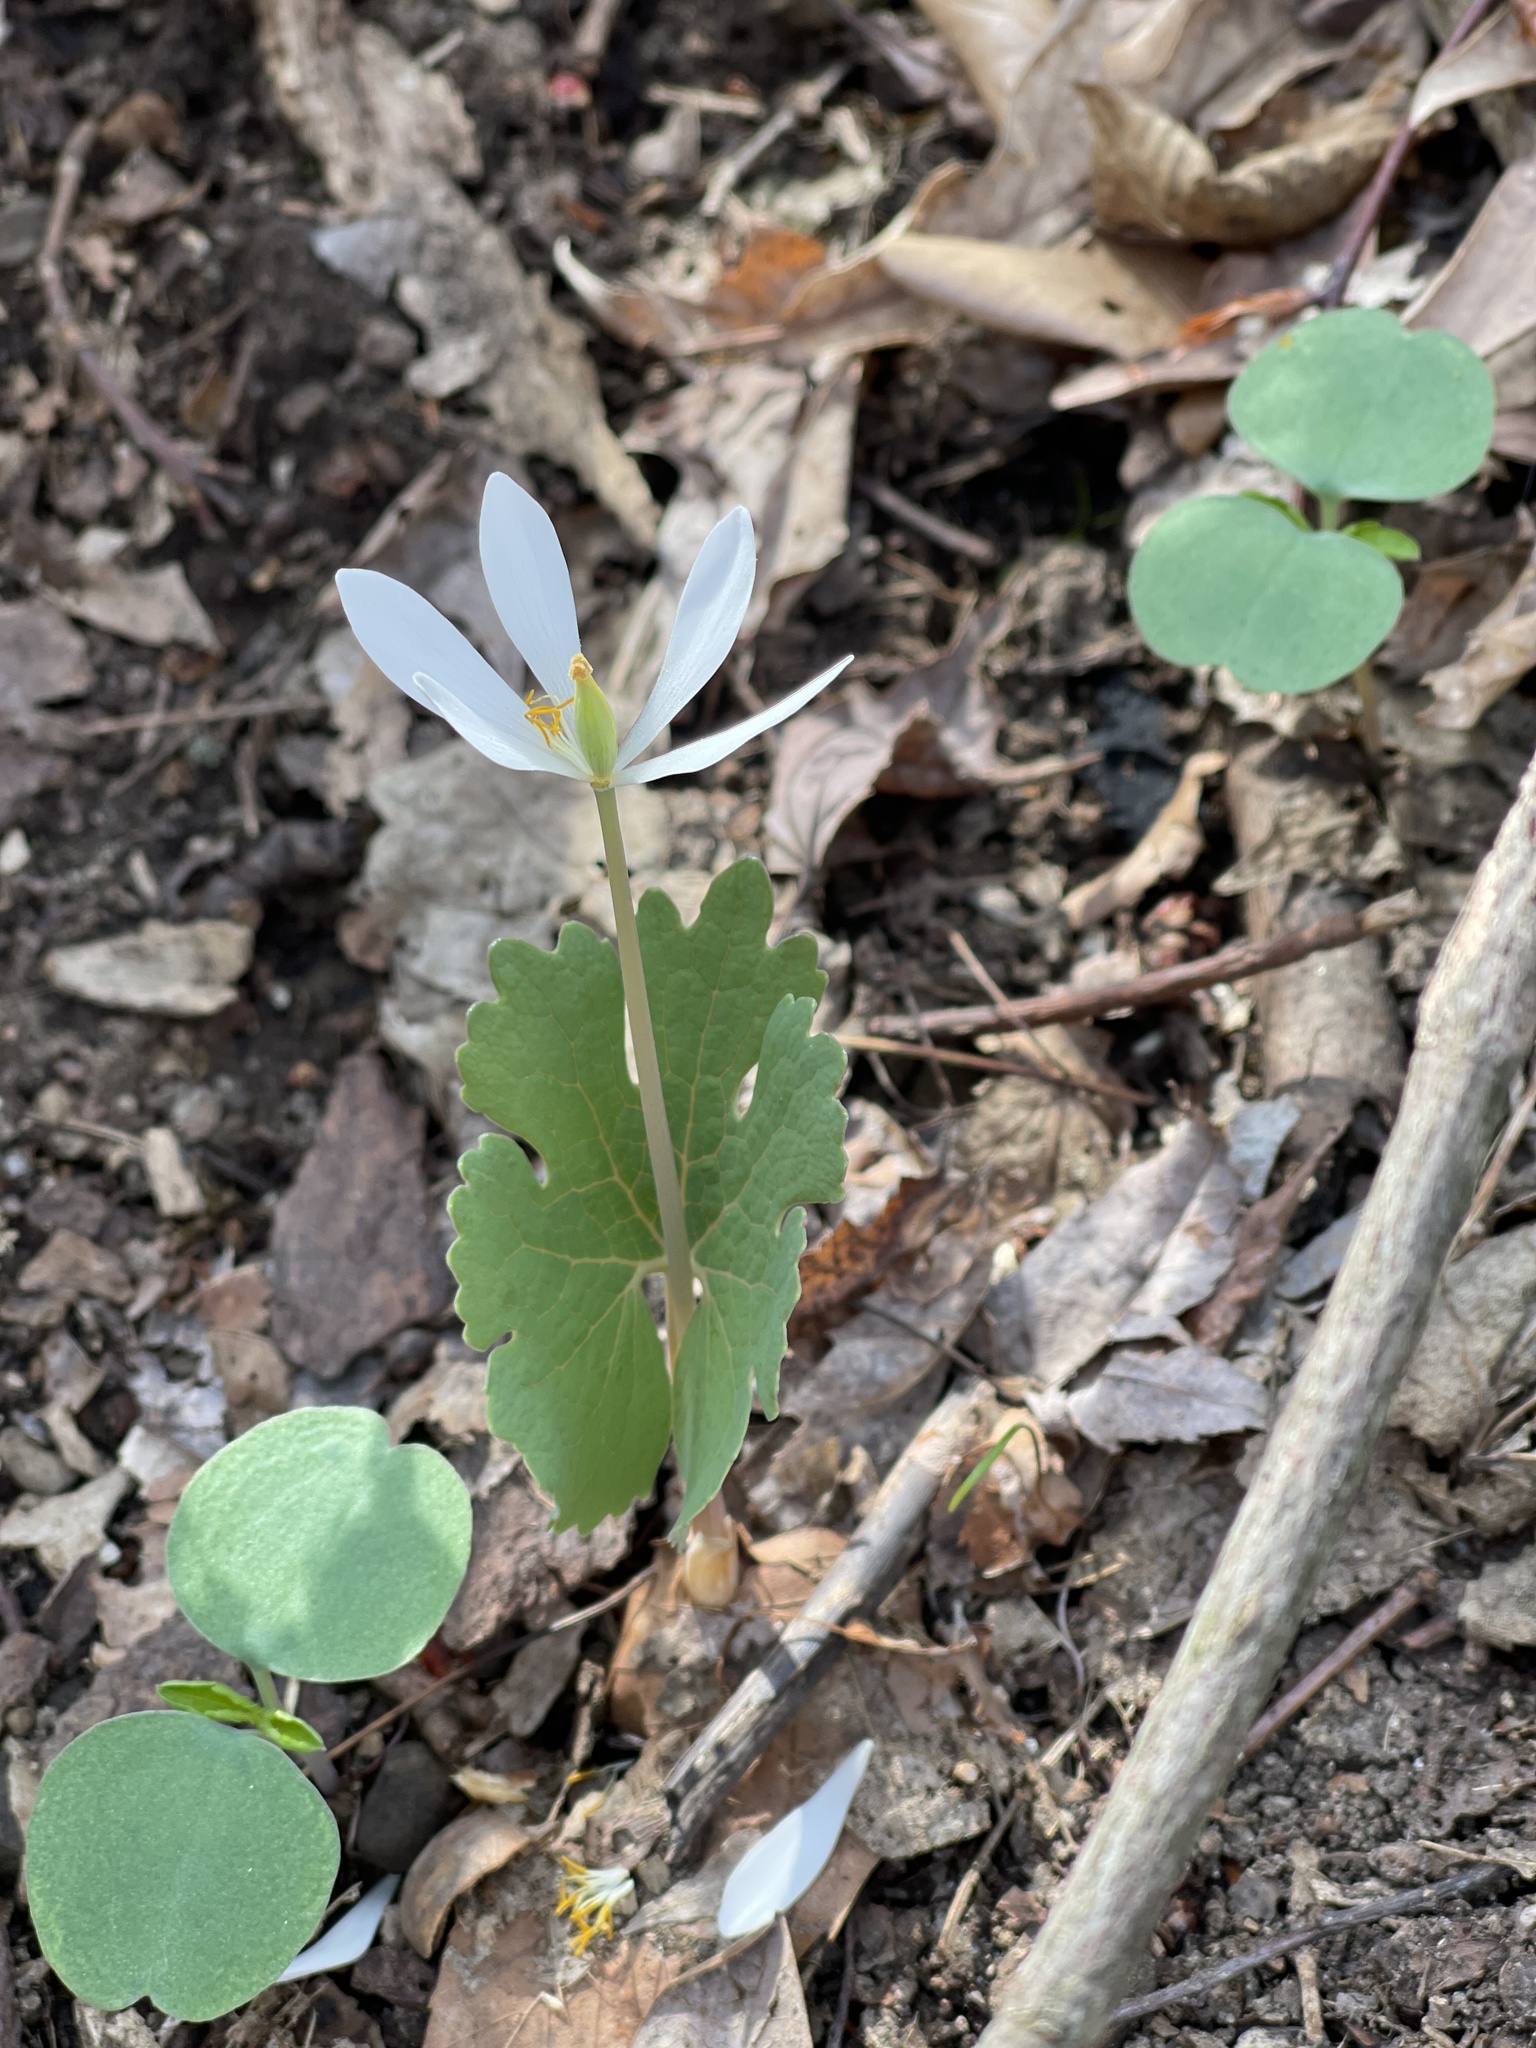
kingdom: Plantae
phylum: Tracheophyta
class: Magnoliopsida
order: Ranunculales
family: Papaveraceae
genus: Sanguinaria
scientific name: Sanguinaria canadensis
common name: Bloodroot
